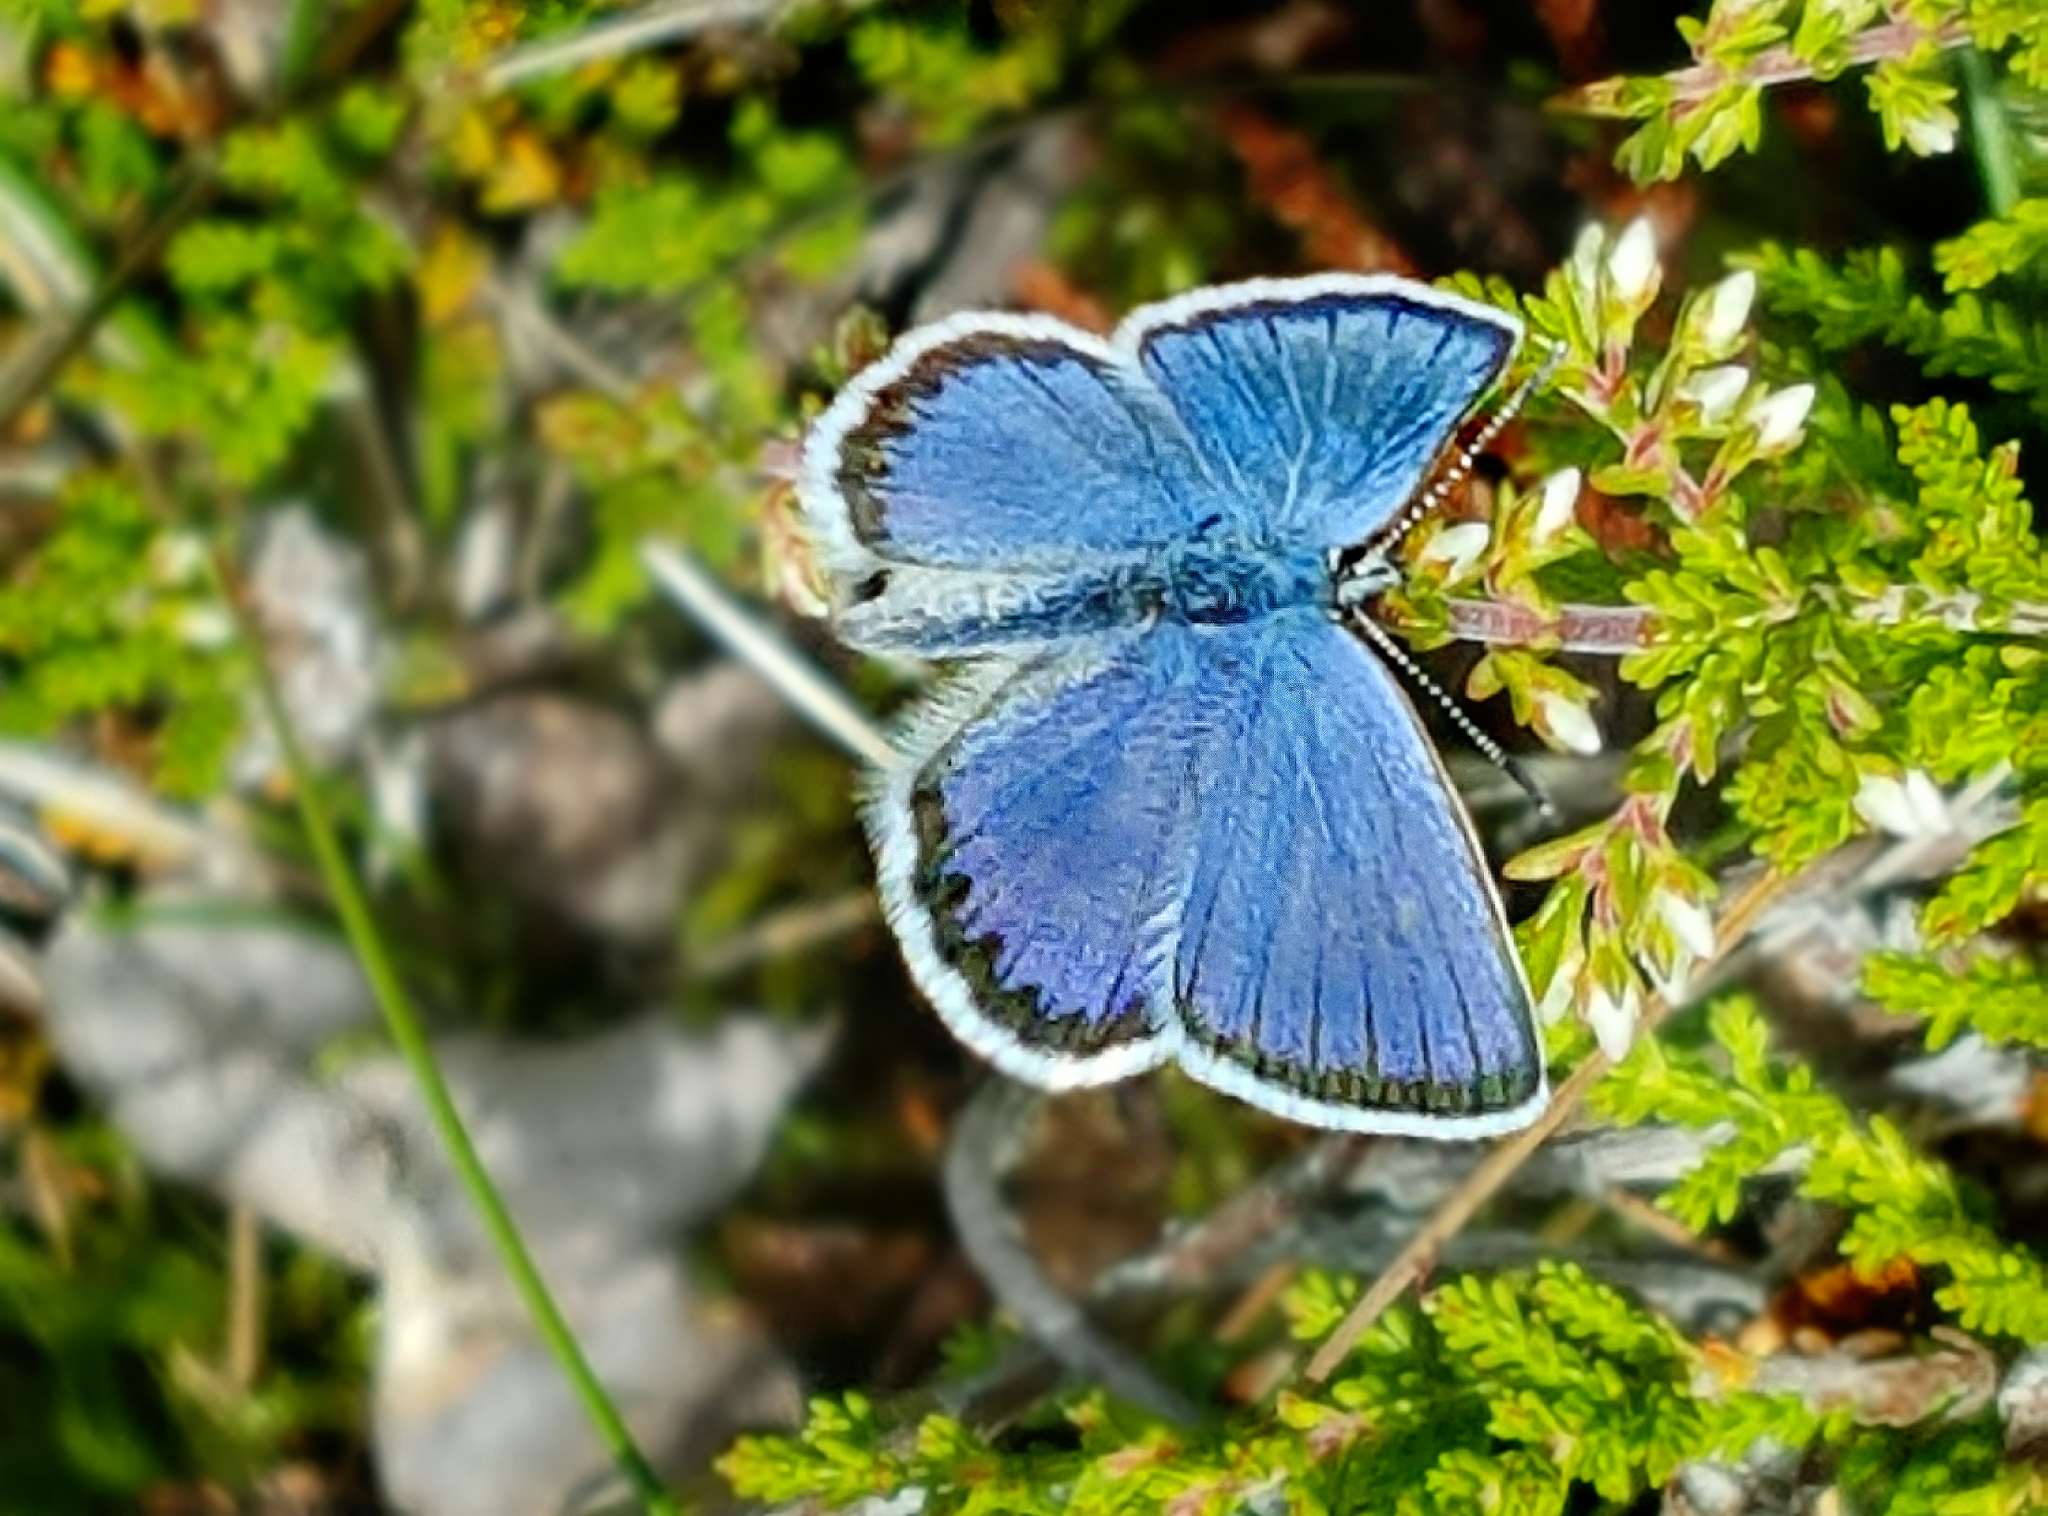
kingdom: Animalia
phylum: Arthropoda
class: Insecta
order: Lepidoptera
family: Lycaenidae
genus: Lycaeides
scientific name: Lycaeides idas
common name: Northern blue
